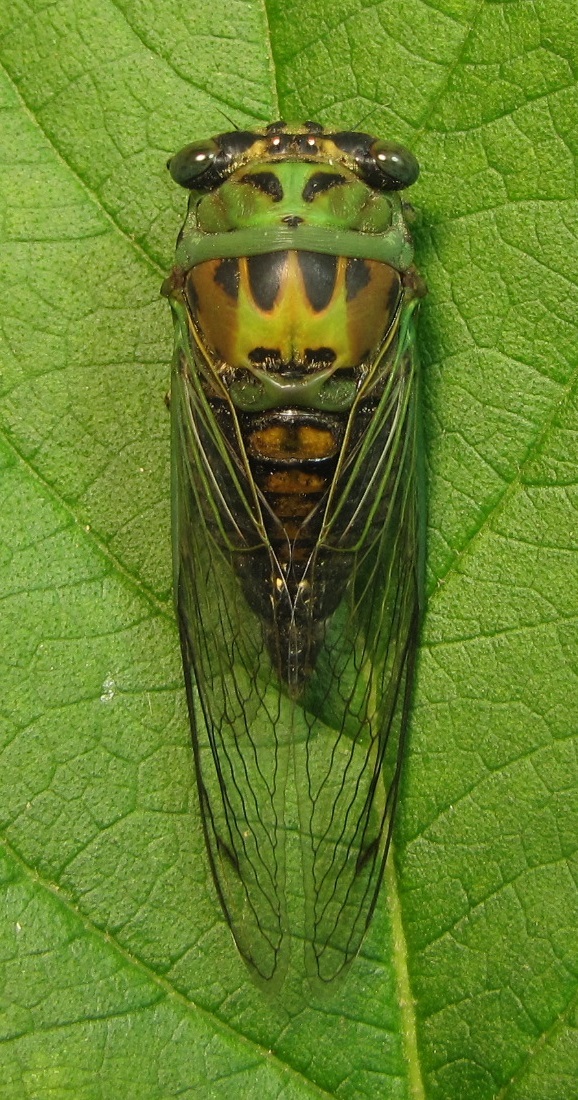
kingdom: Animalia
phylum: Arthropoda
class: Insecta
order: Hemiptera
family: Cicadidae
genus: Neotibicen
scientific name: Neotibicen winnemanna
